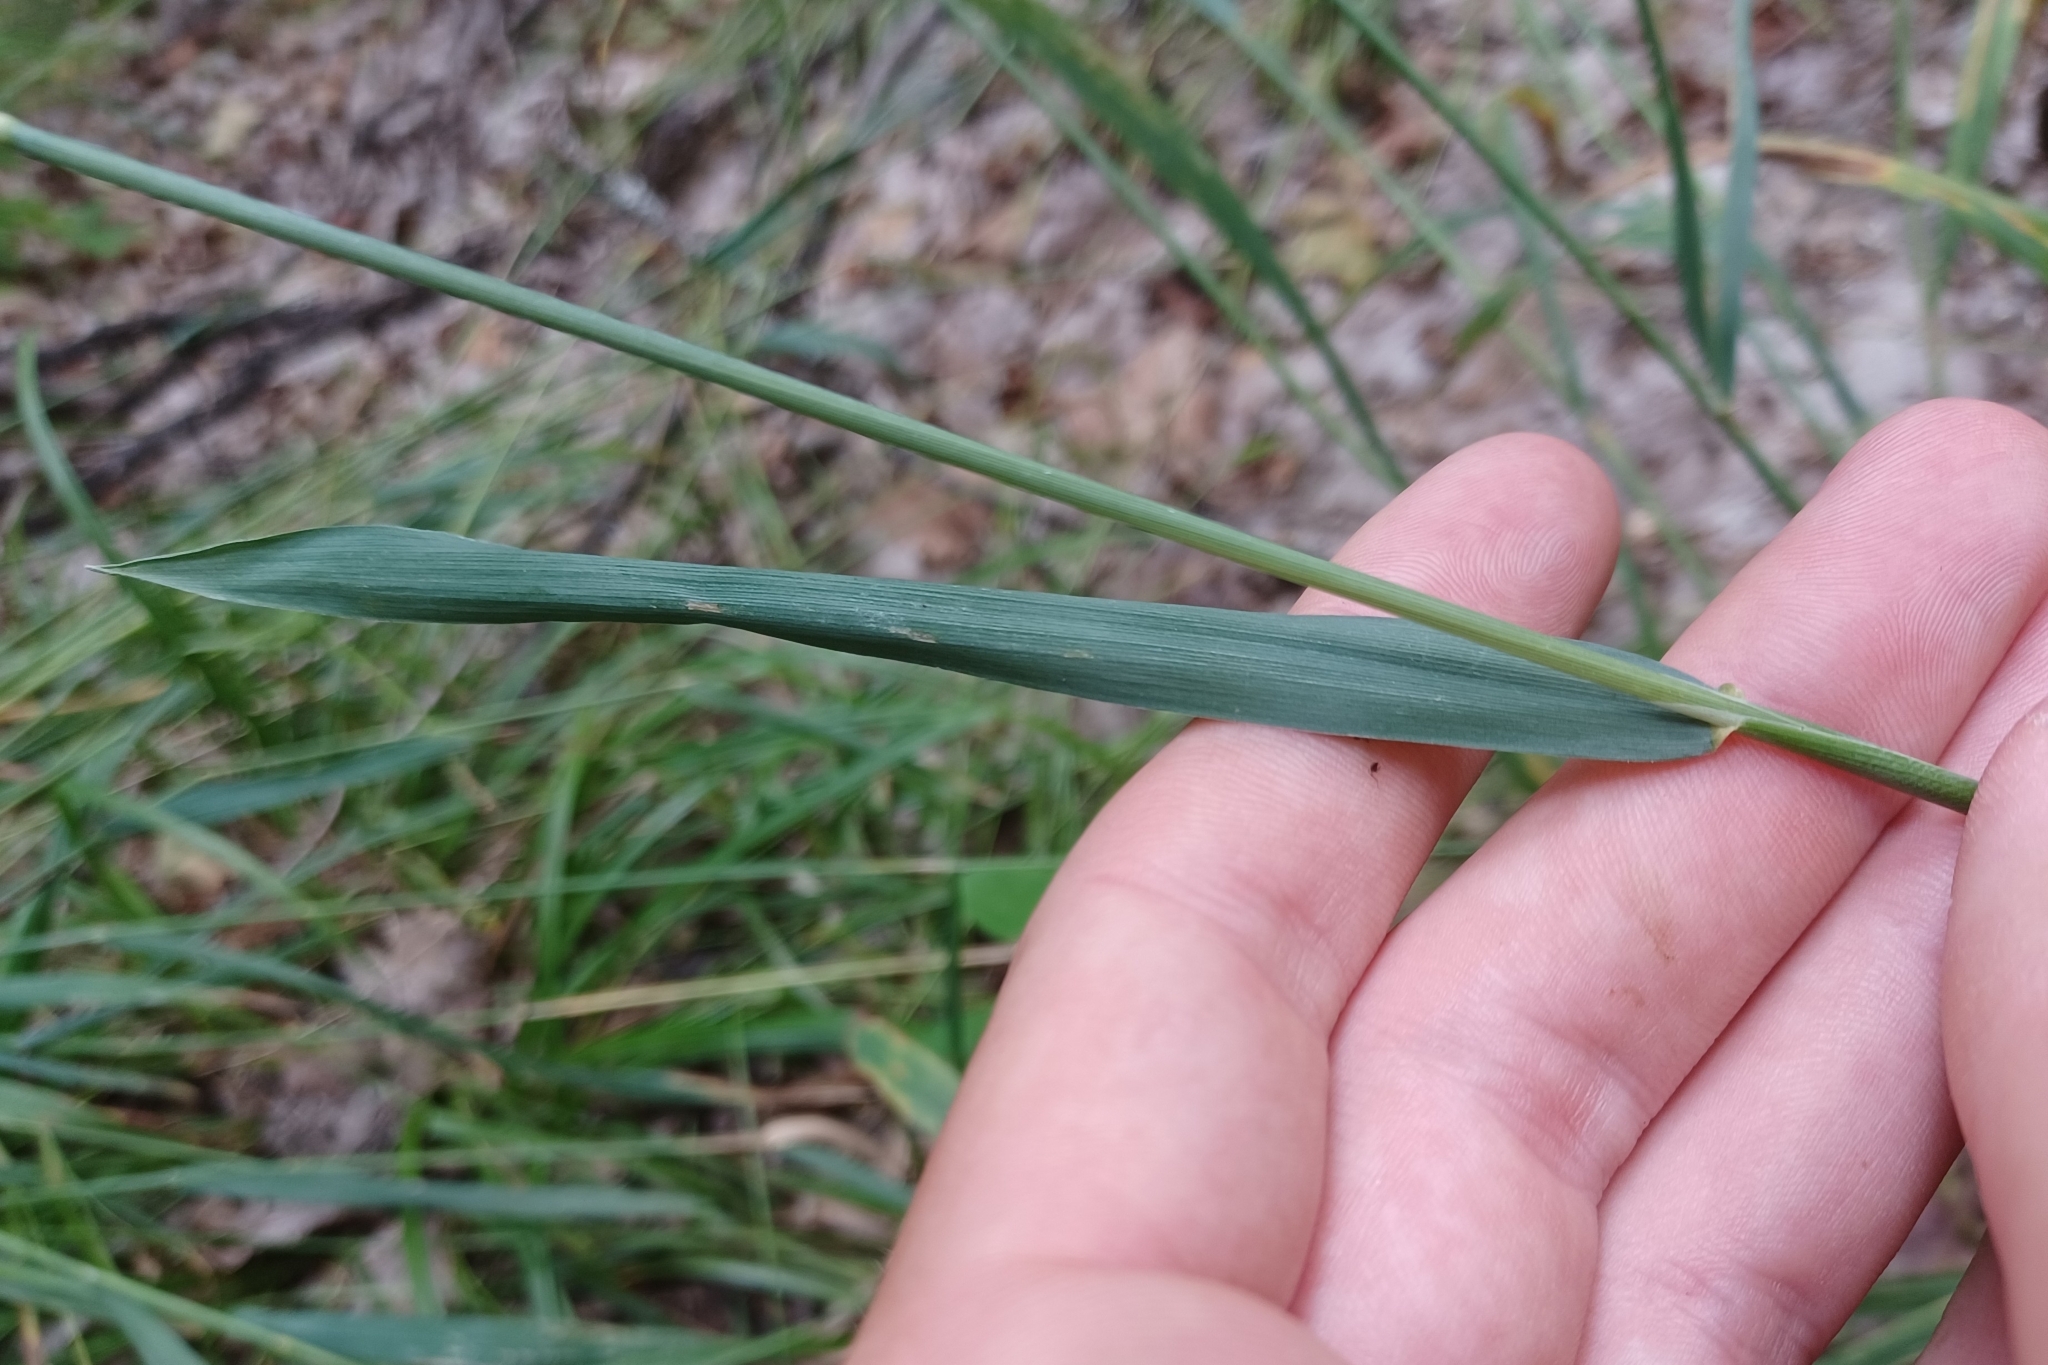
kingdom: Plantae
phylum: Tracheophyta
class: Liliopsida
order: Poales
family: Poaceae
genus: Milium
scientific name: Milium effusum
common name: Wood millet
